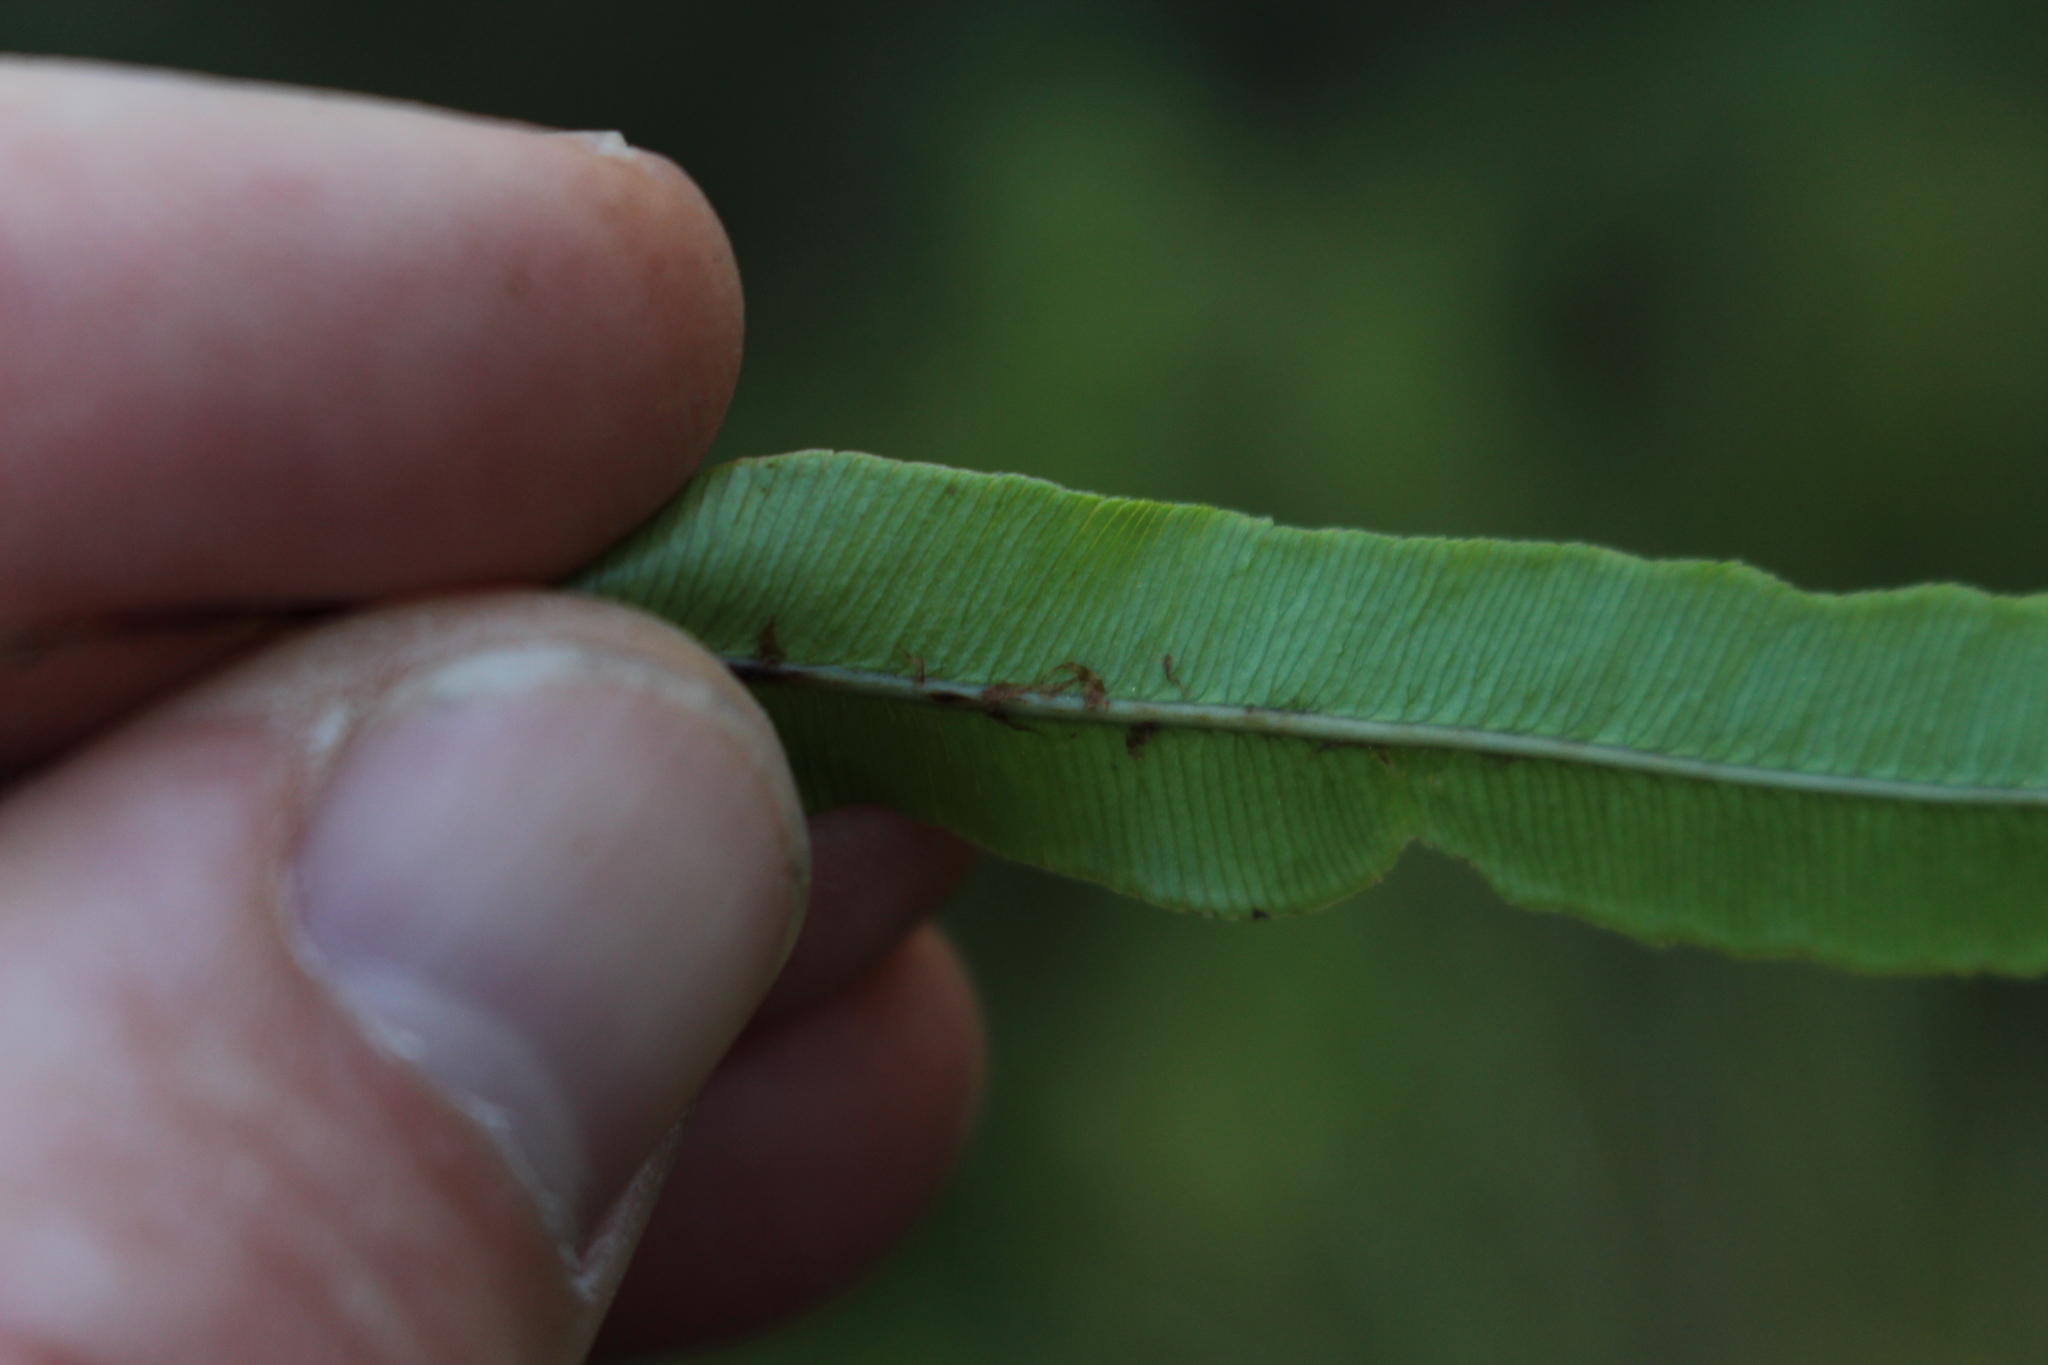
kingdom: Plantae
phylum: Tracheophyta
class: Polypodiopsida
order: Polypodiales
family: Blechnaceae
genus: Parablechnum
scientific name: Parablechnum minus
